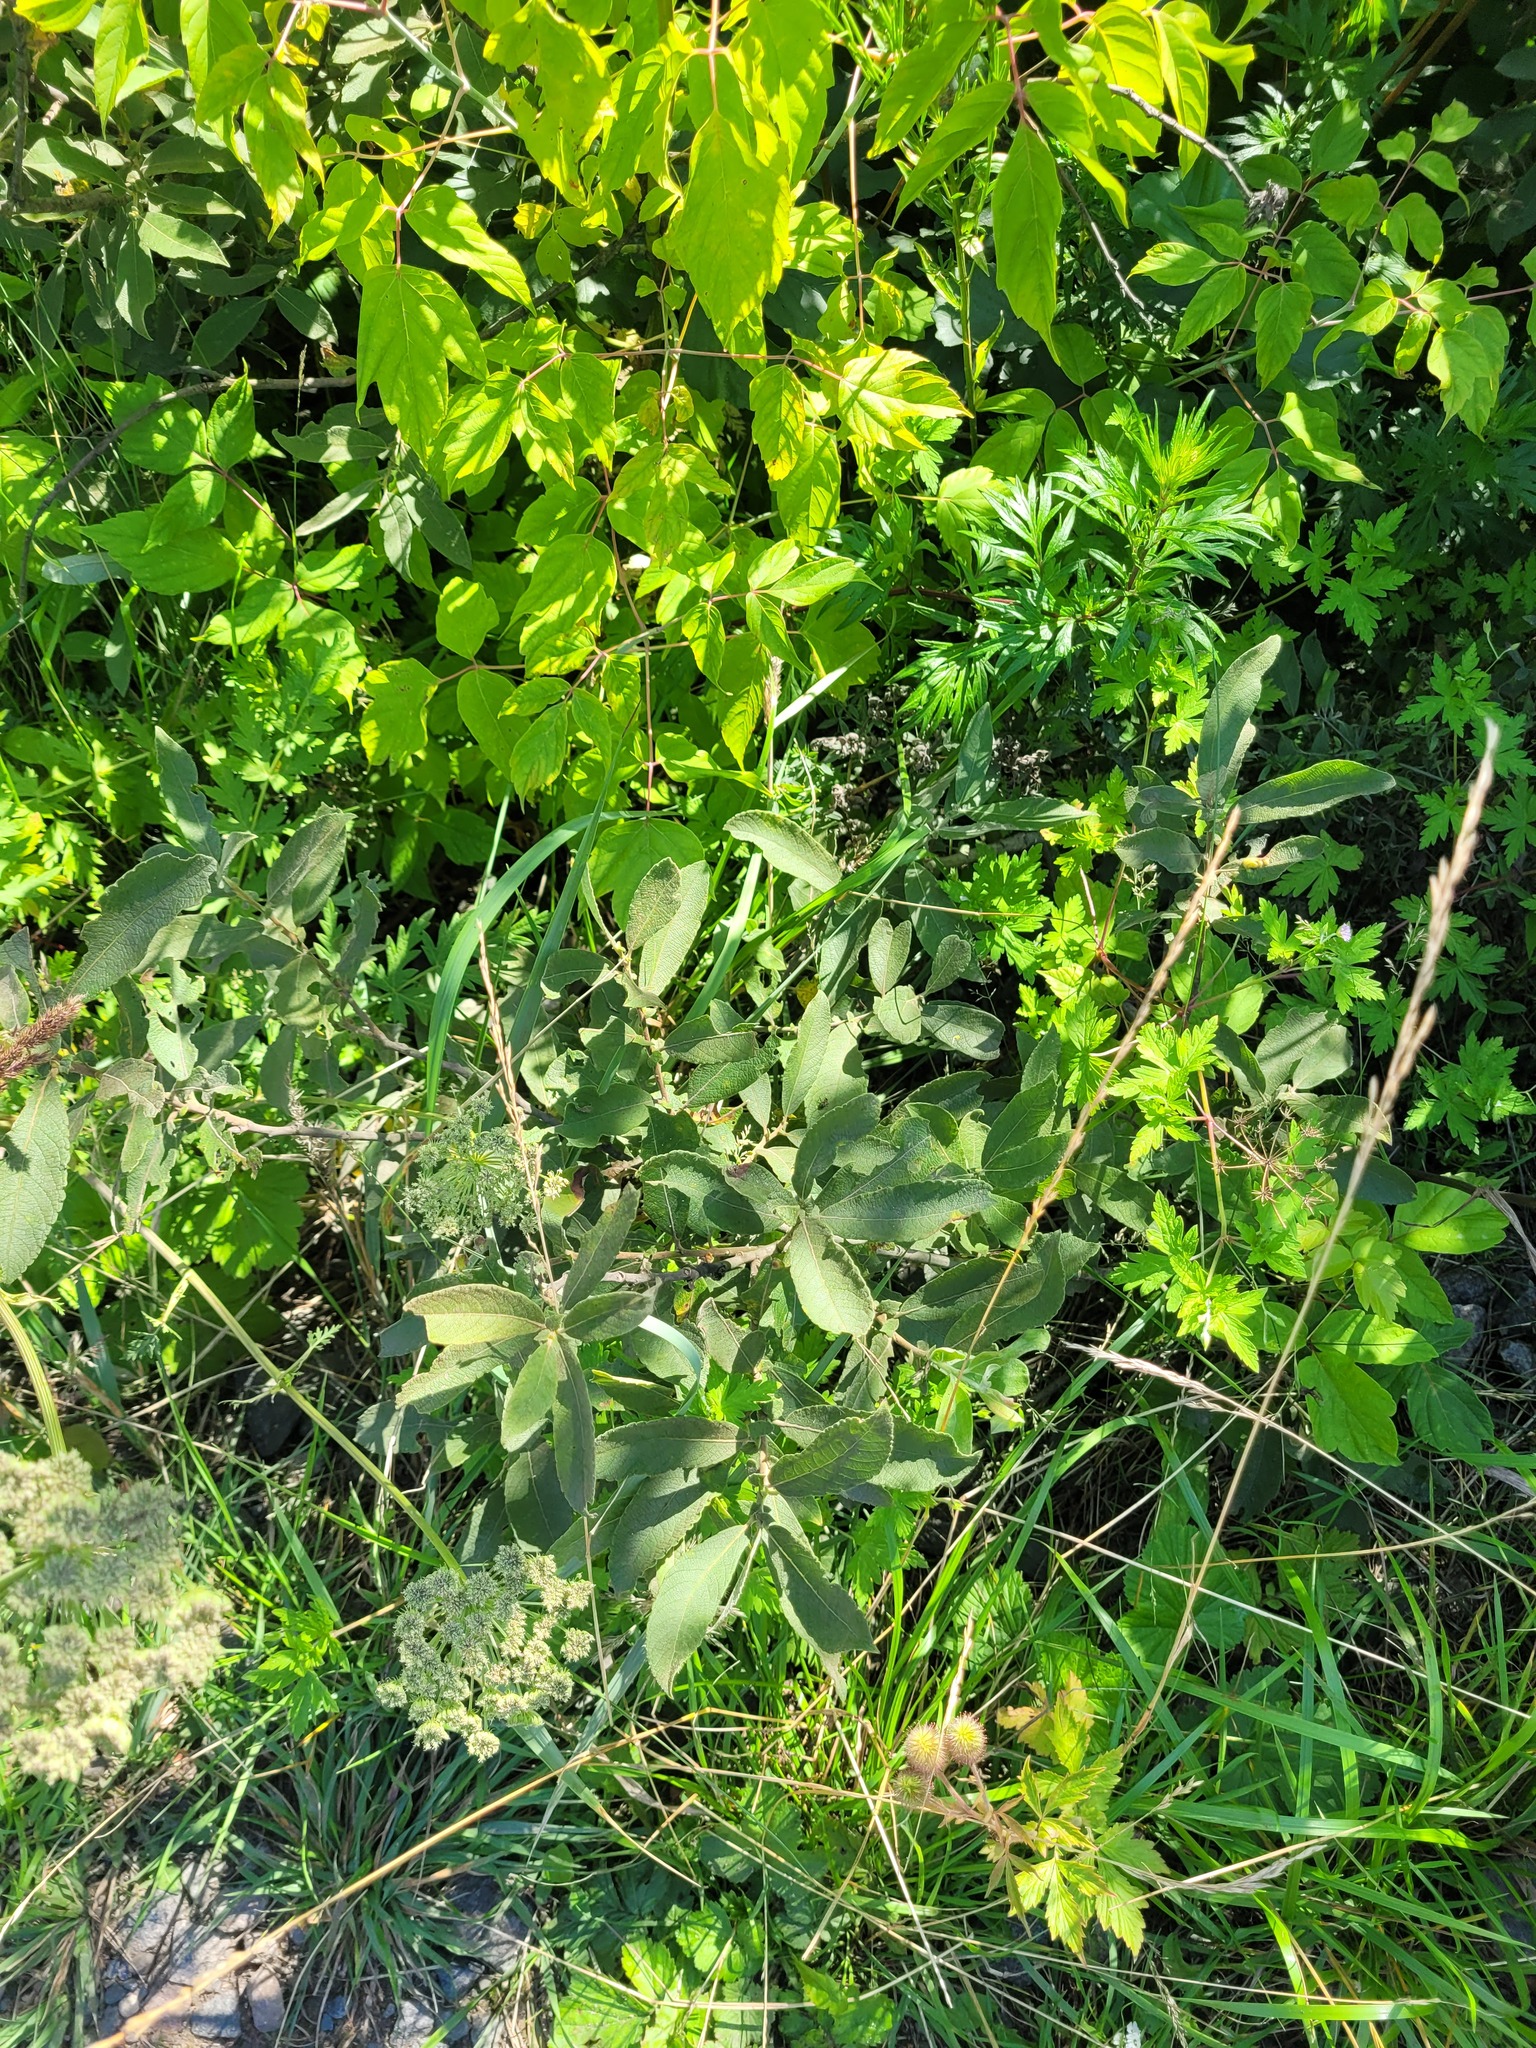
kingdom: Plantae
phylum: Tracheophyta
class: Magnoliopsida
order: Malpighiales
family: Salicaceae
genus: Salix
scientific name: Salix cinerea
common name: Common sallow
